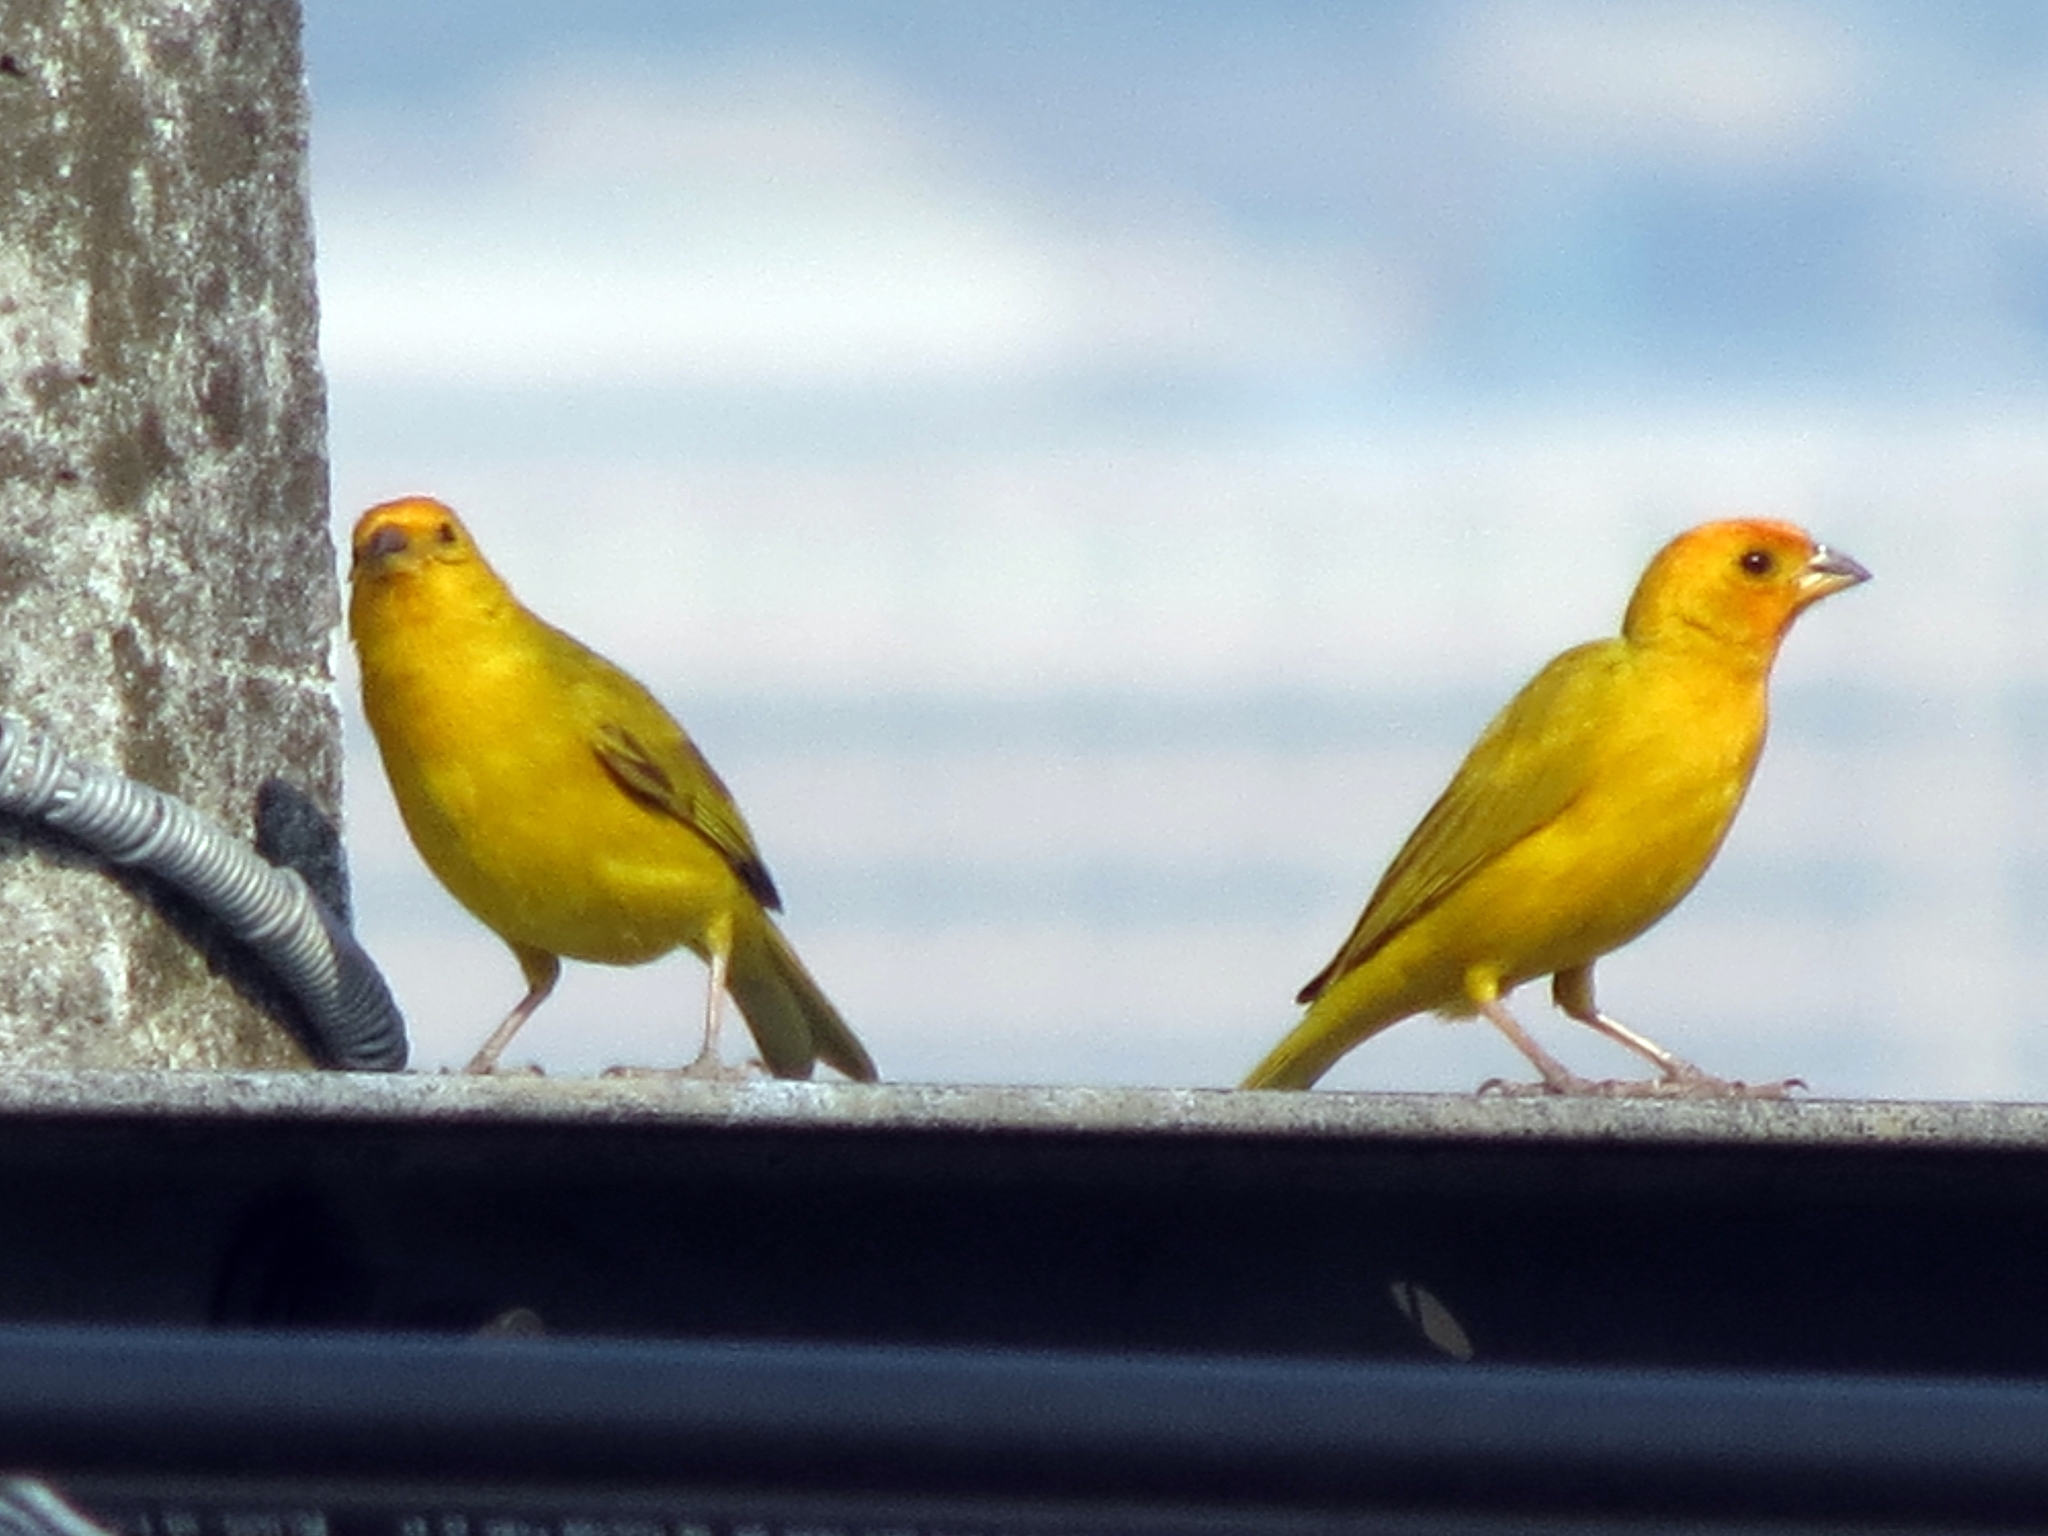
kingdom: Animalia
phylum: Chordata
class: Aves
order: Passeriformes
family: Thraupidae
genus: Sicalis
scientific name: Sicalis flaveola
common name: Saffron finch
